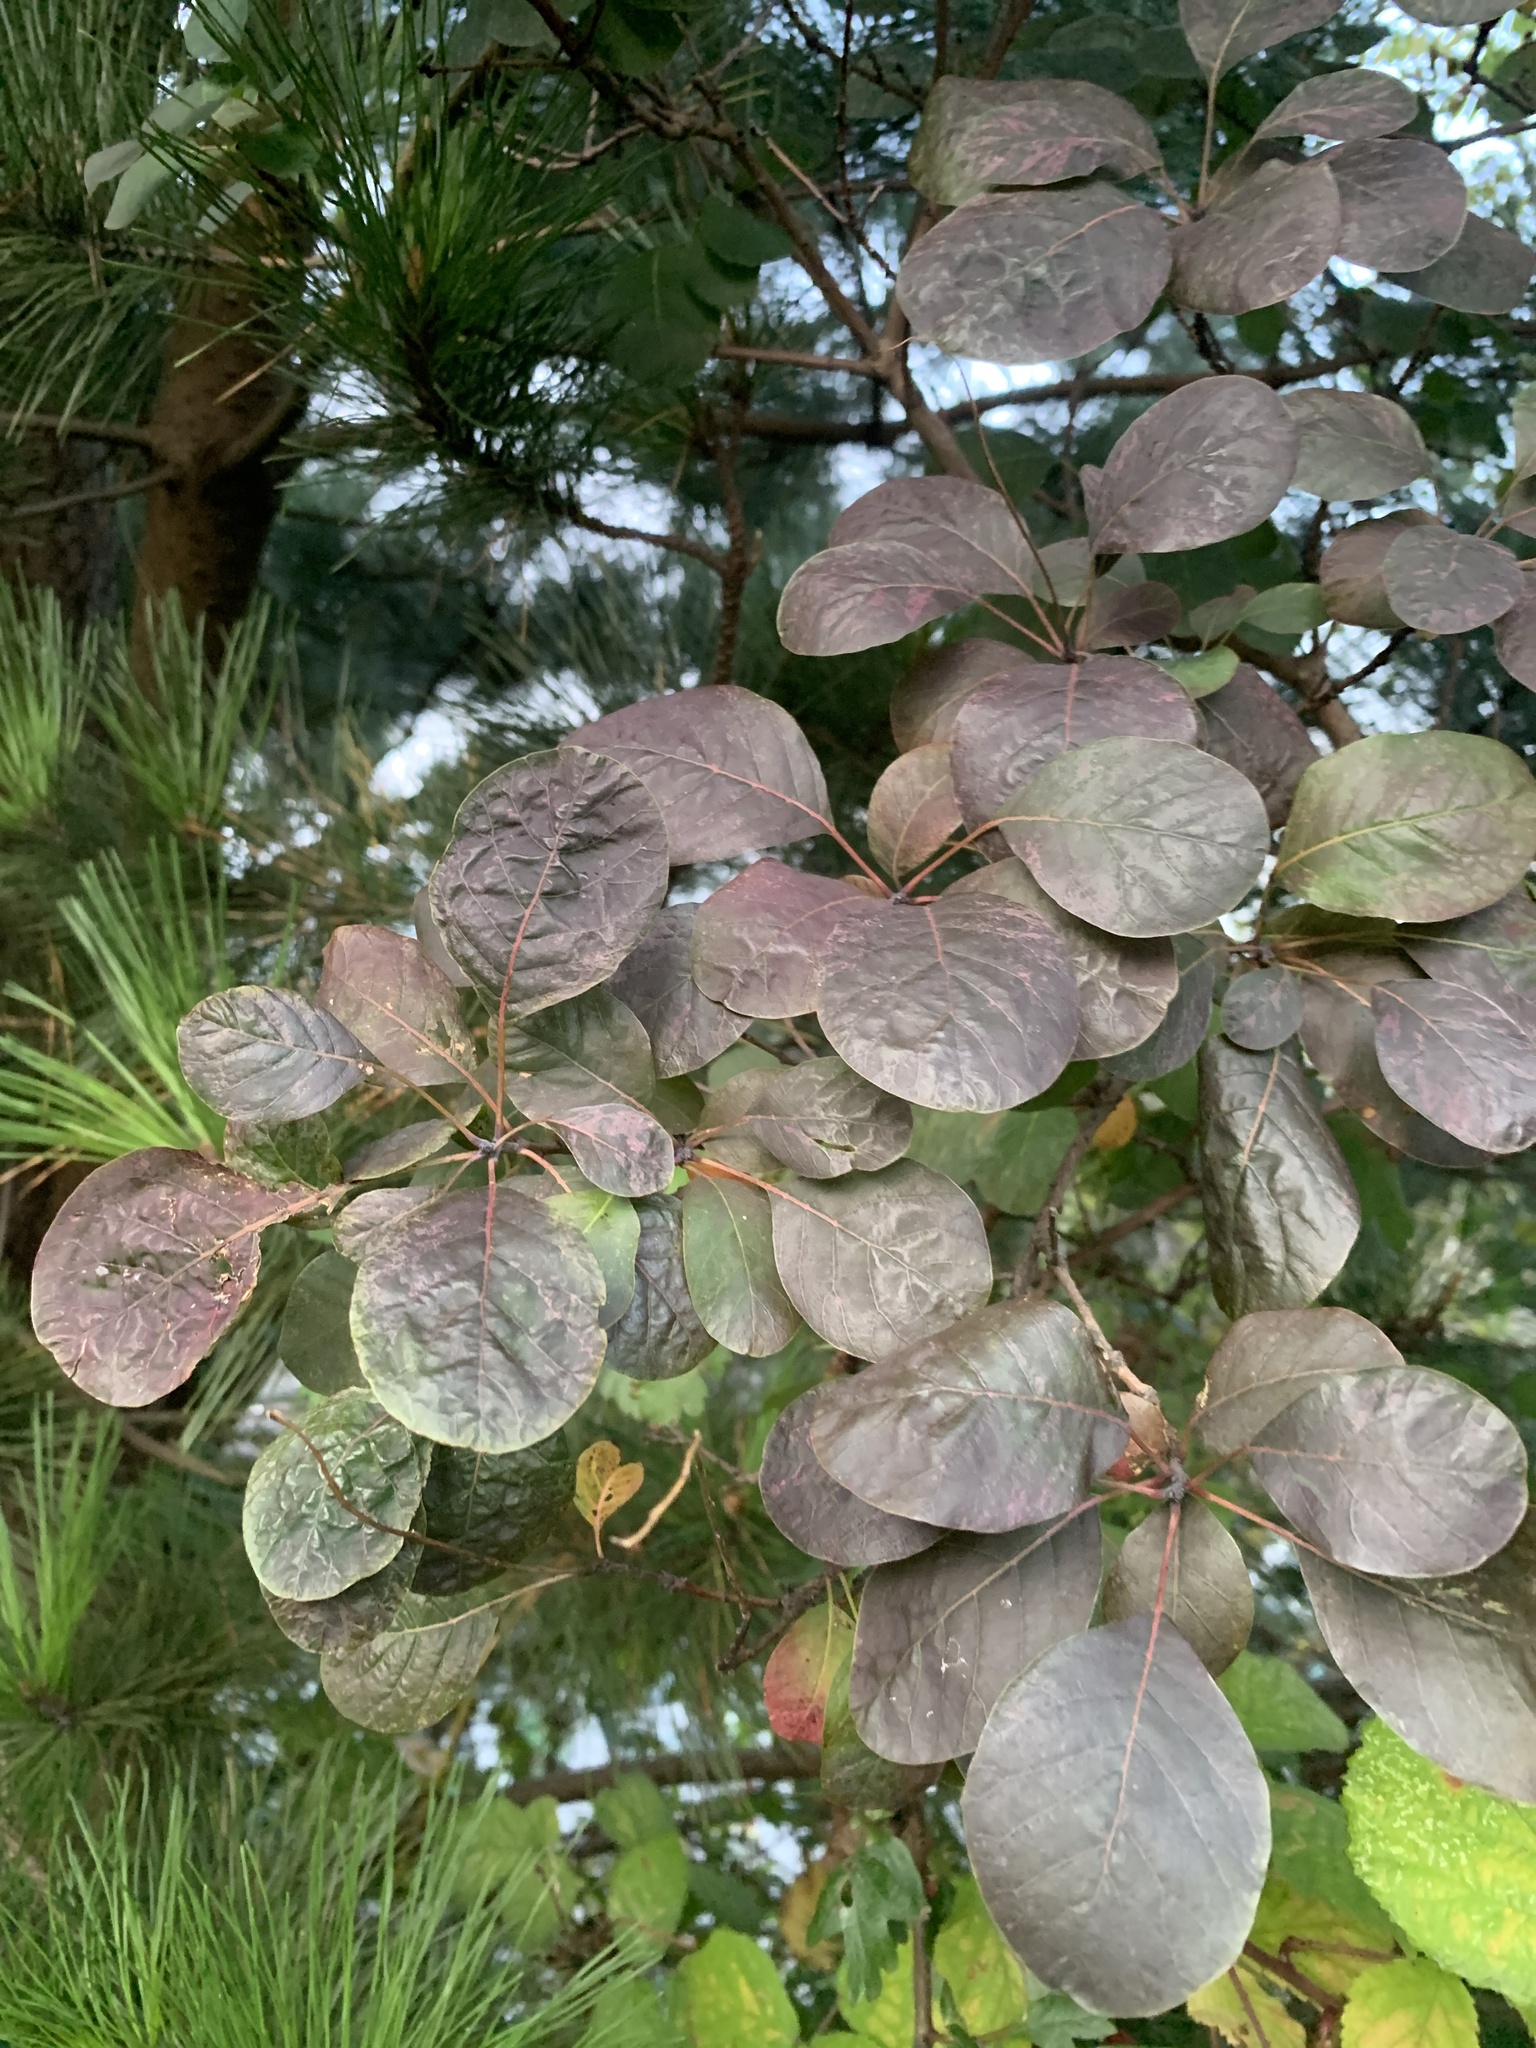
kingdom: Plantae
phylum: Tracheophyta
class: Magnoliopsida
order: Sapindales
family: Anacardiaceae
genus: Cotinus
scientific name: Cotinus coggygria
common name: Smoke-tree
